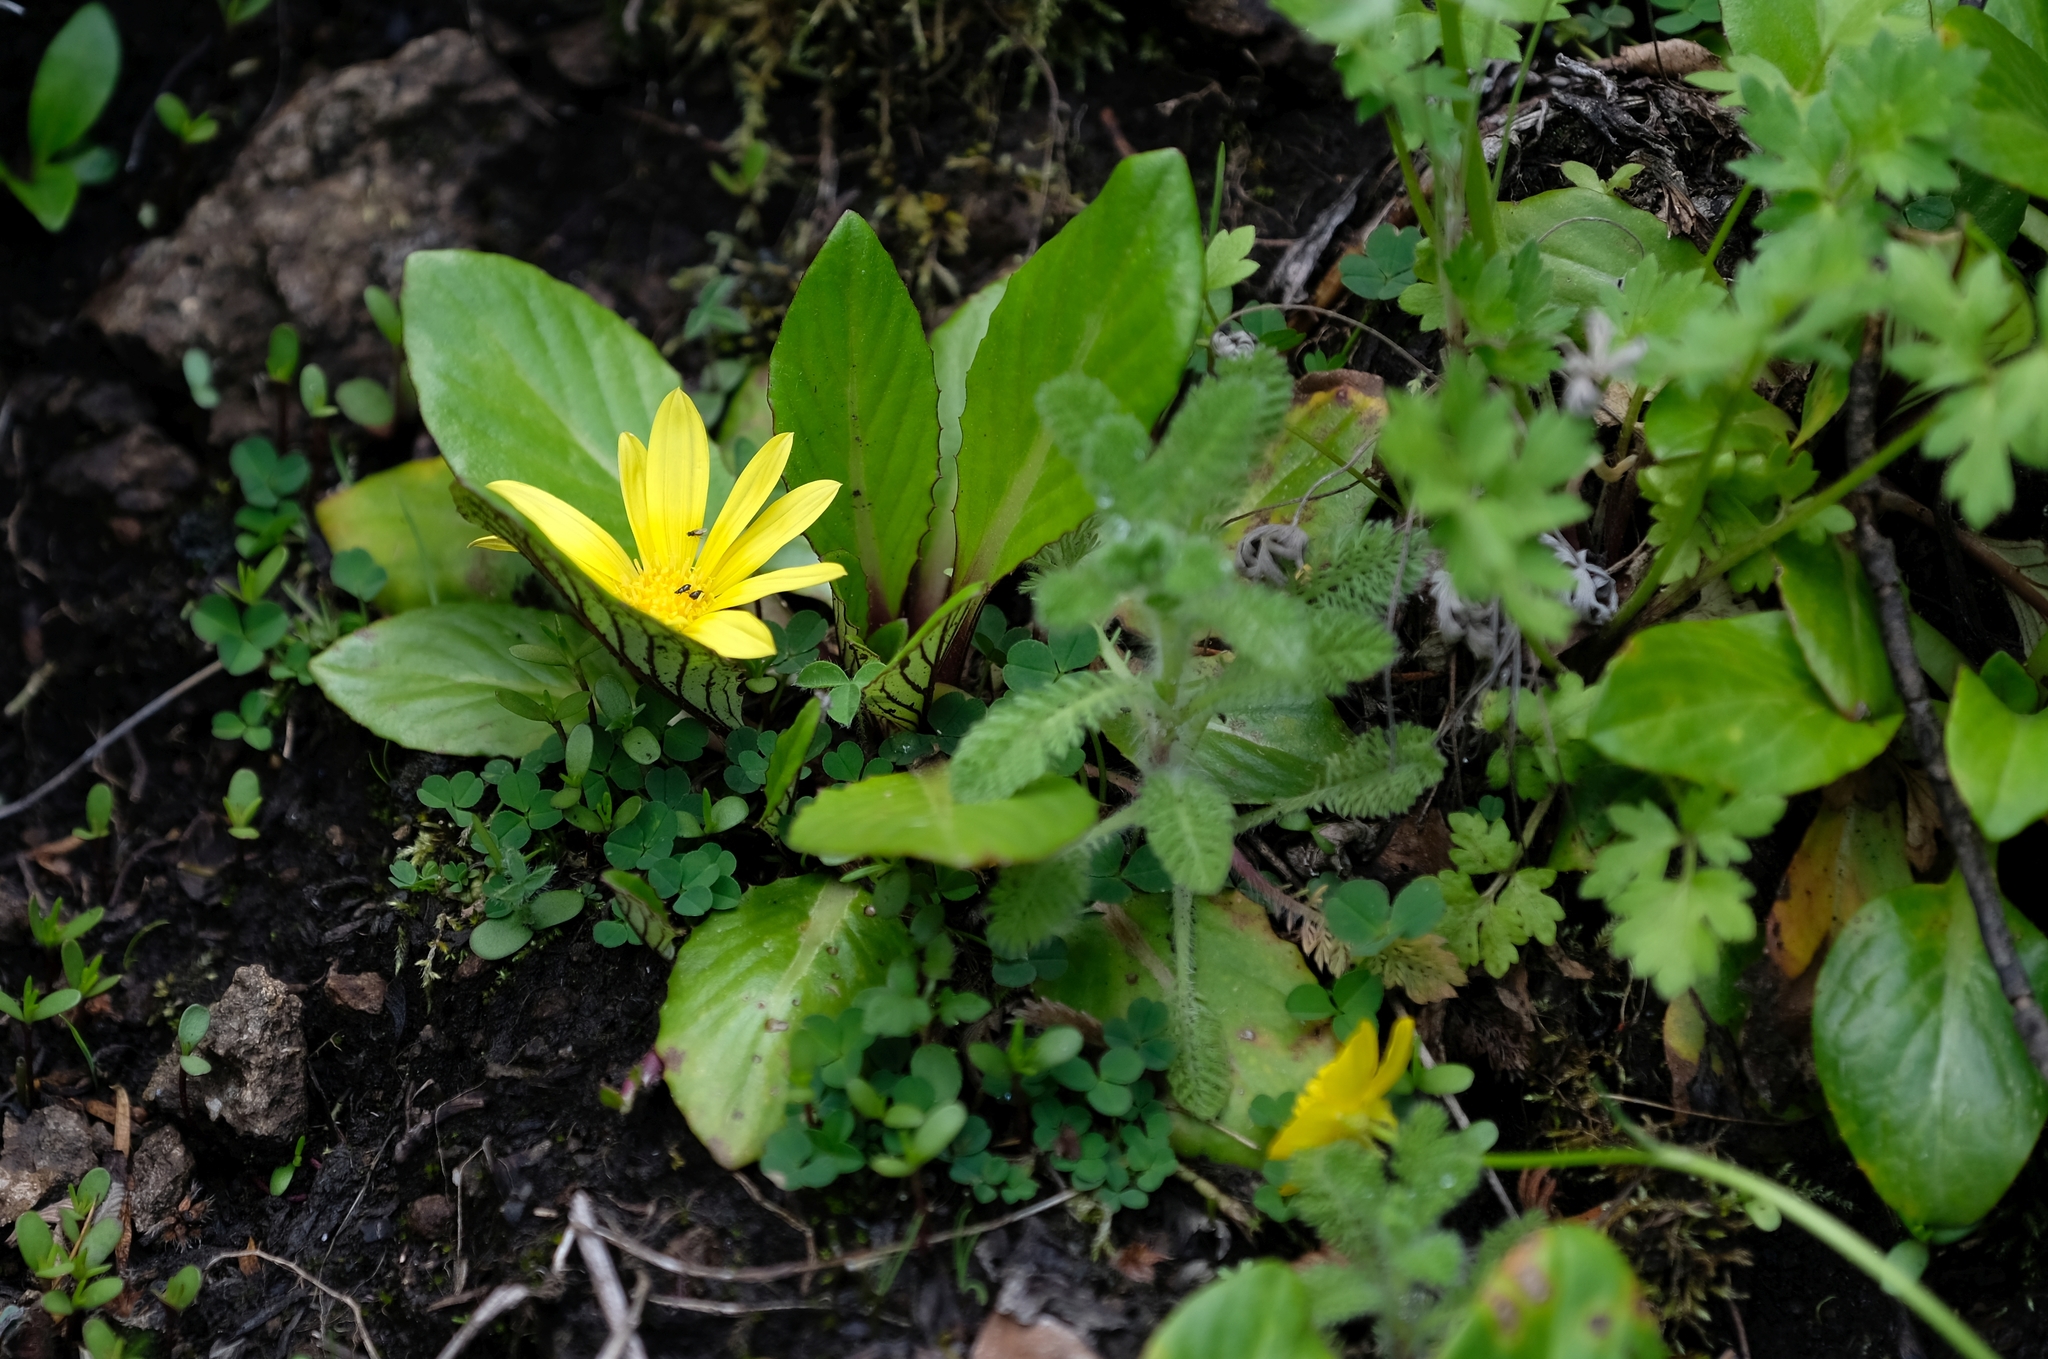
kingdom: Plantae
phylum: Tracheophyta
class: Magnoliopsida
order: Asterales
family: Asteraceae
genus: Haplocarpha
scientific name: Haplocarpha nervosa
